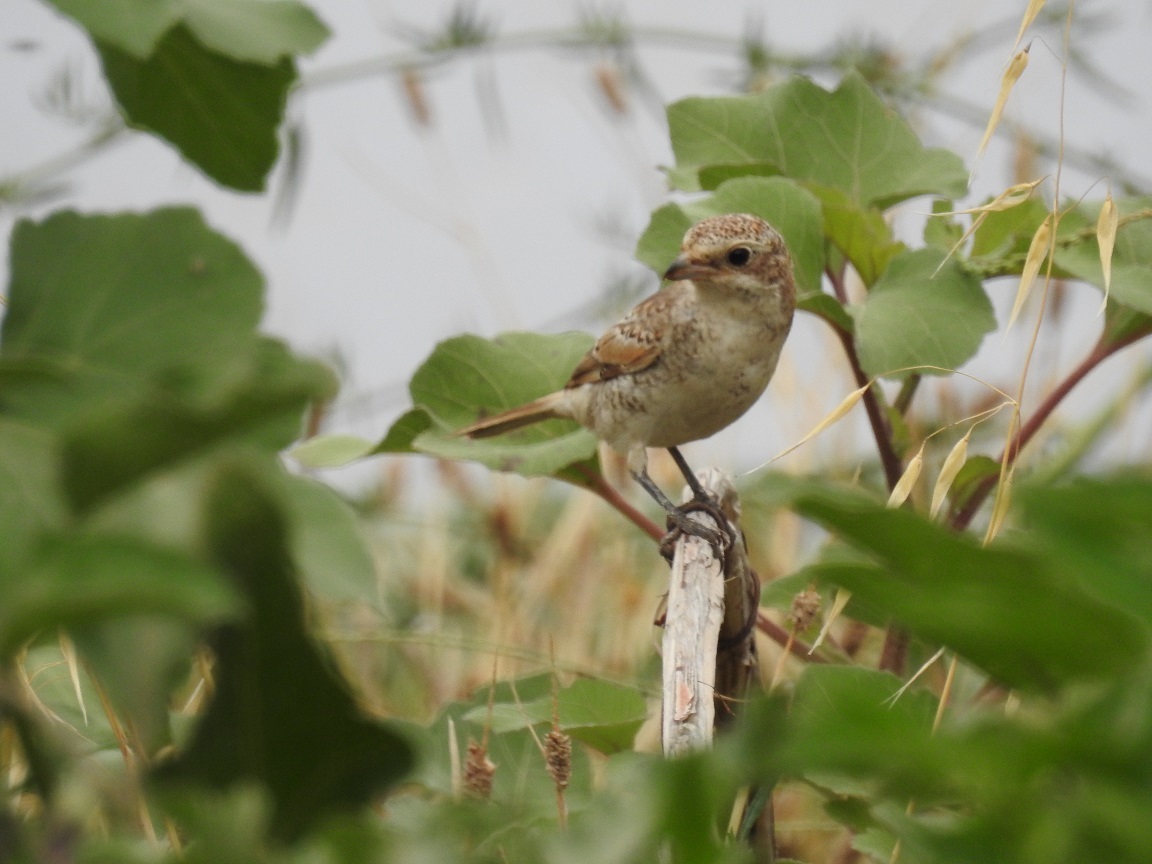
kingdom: Animalia
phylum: Chordata
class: Aves
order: Passeriformes
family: Laniidae
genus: Lanius
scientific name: Lanius senator
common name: Woodchat shrike
